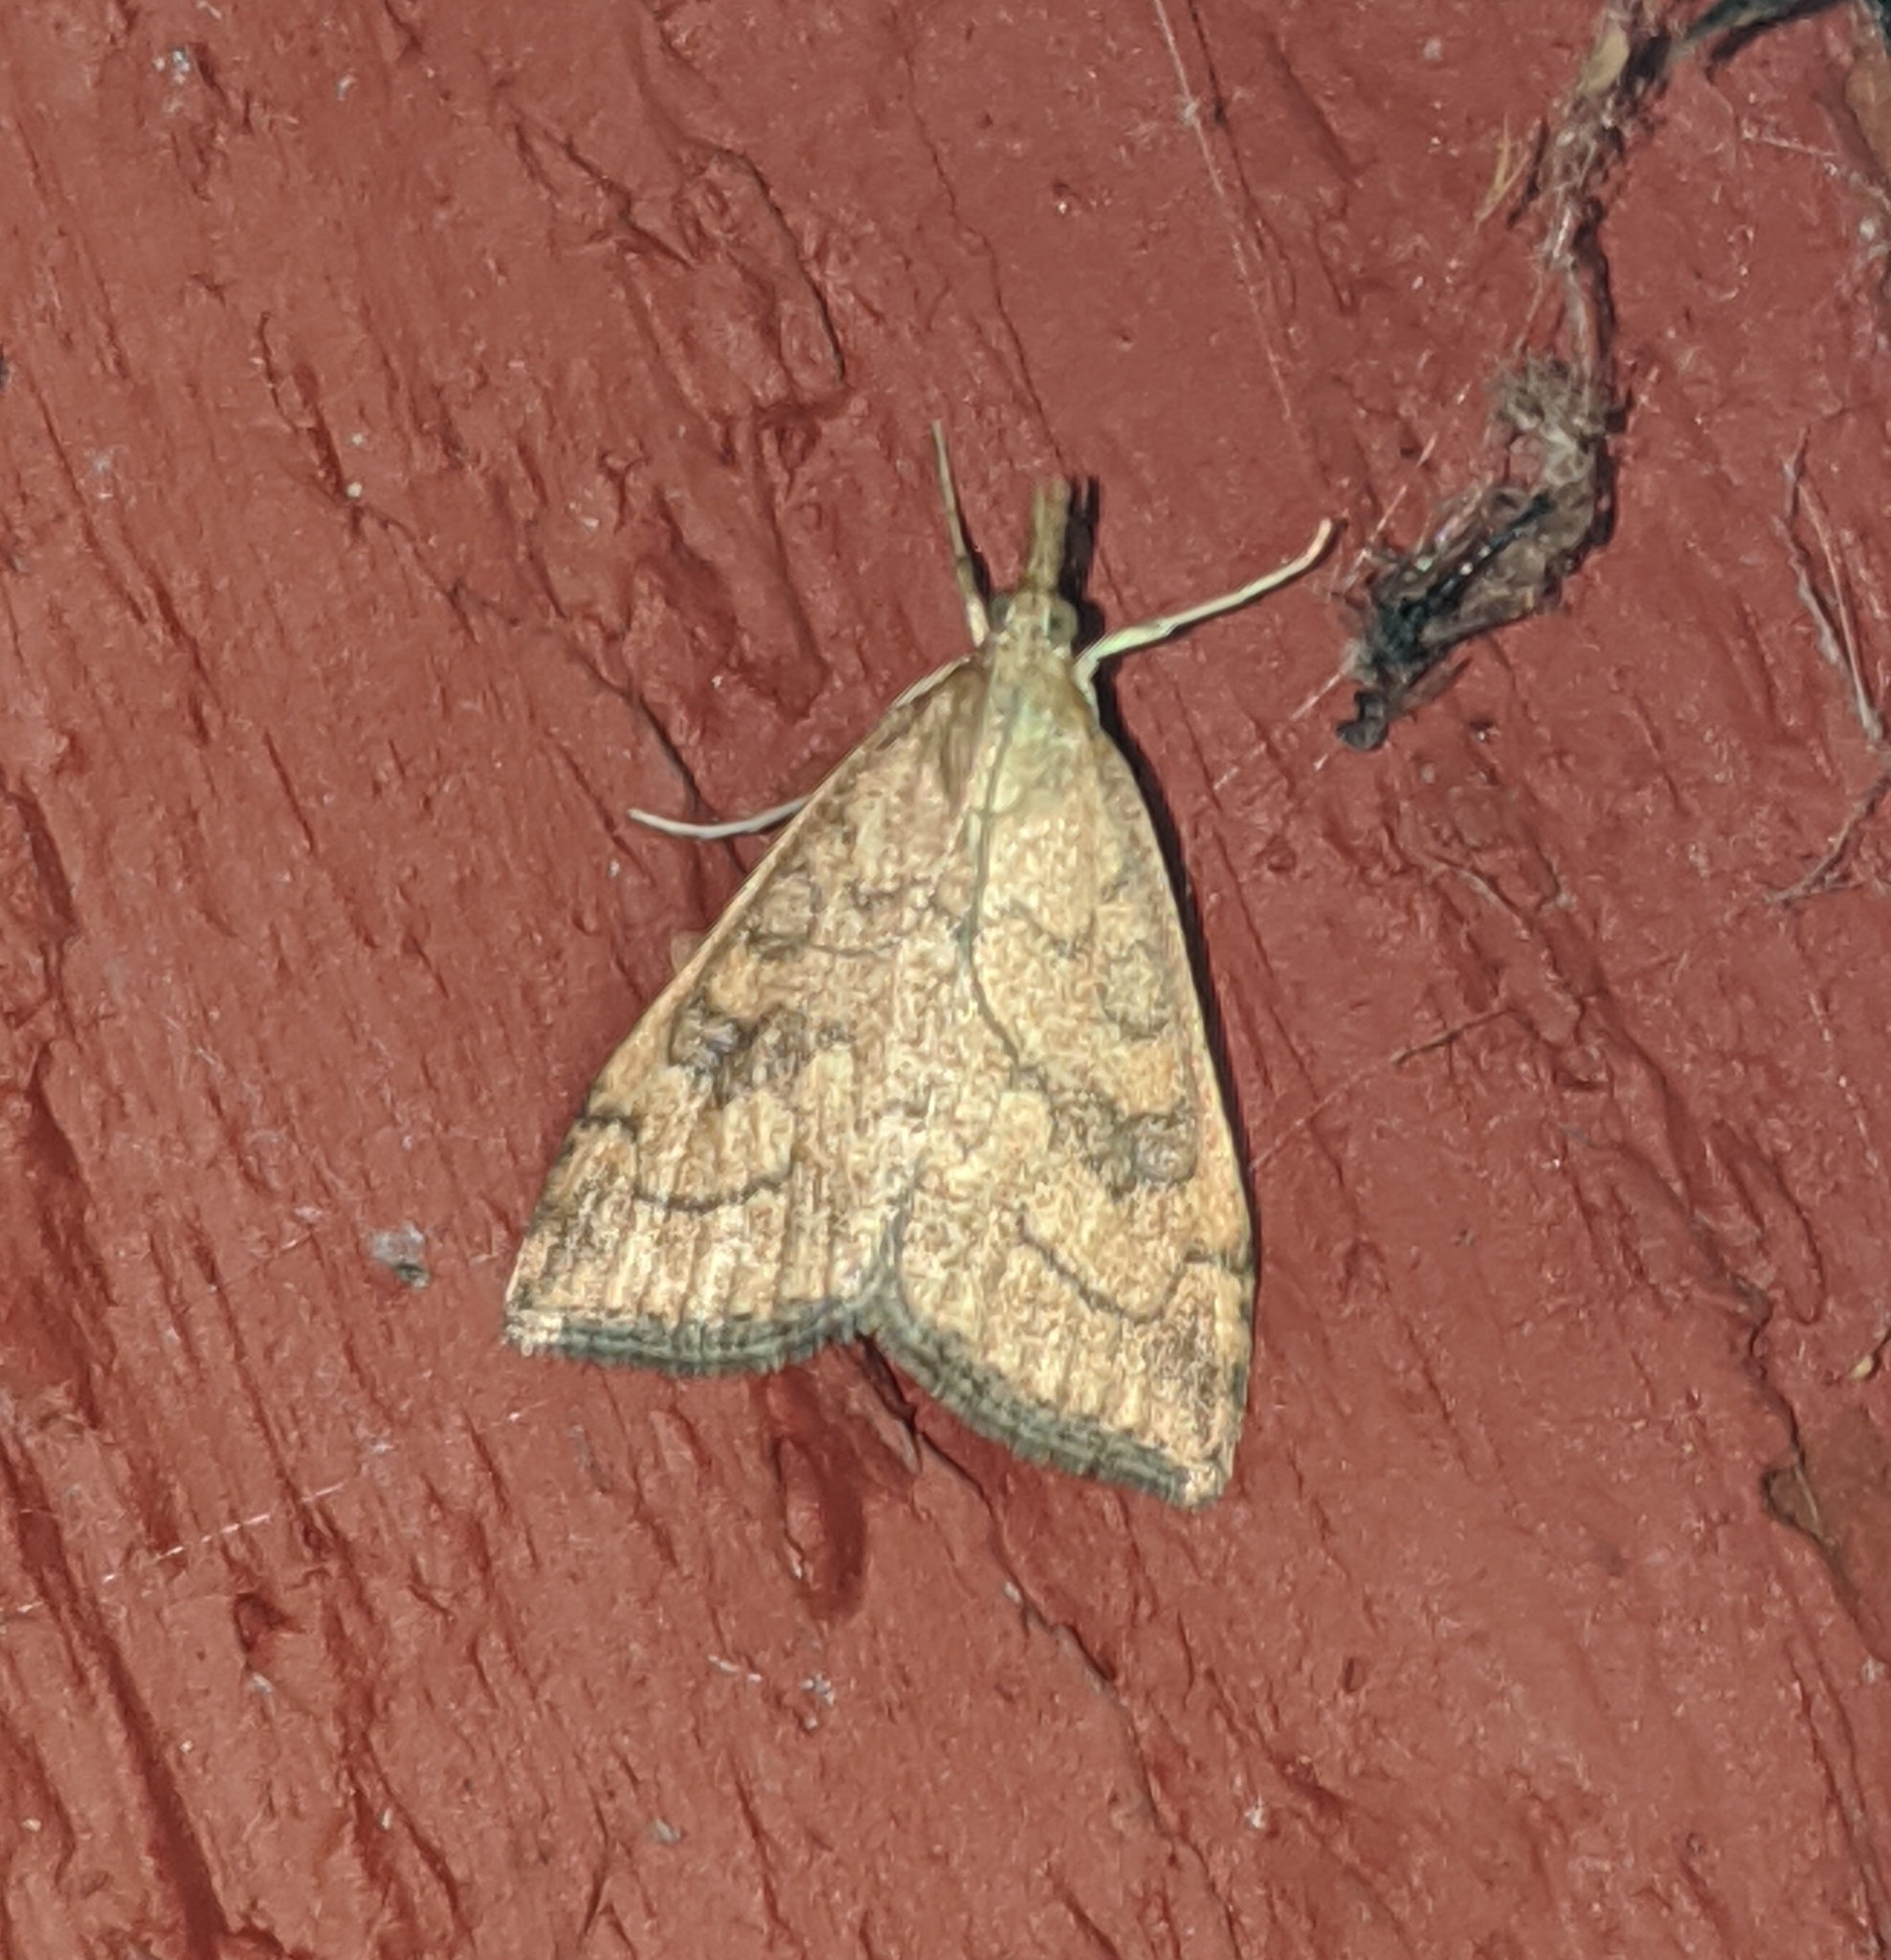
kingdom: Animalia
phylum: Arthropoda
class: Insecta
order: Lepidoptera
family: Crambidae
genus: Udea
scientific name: Udea profundalis
